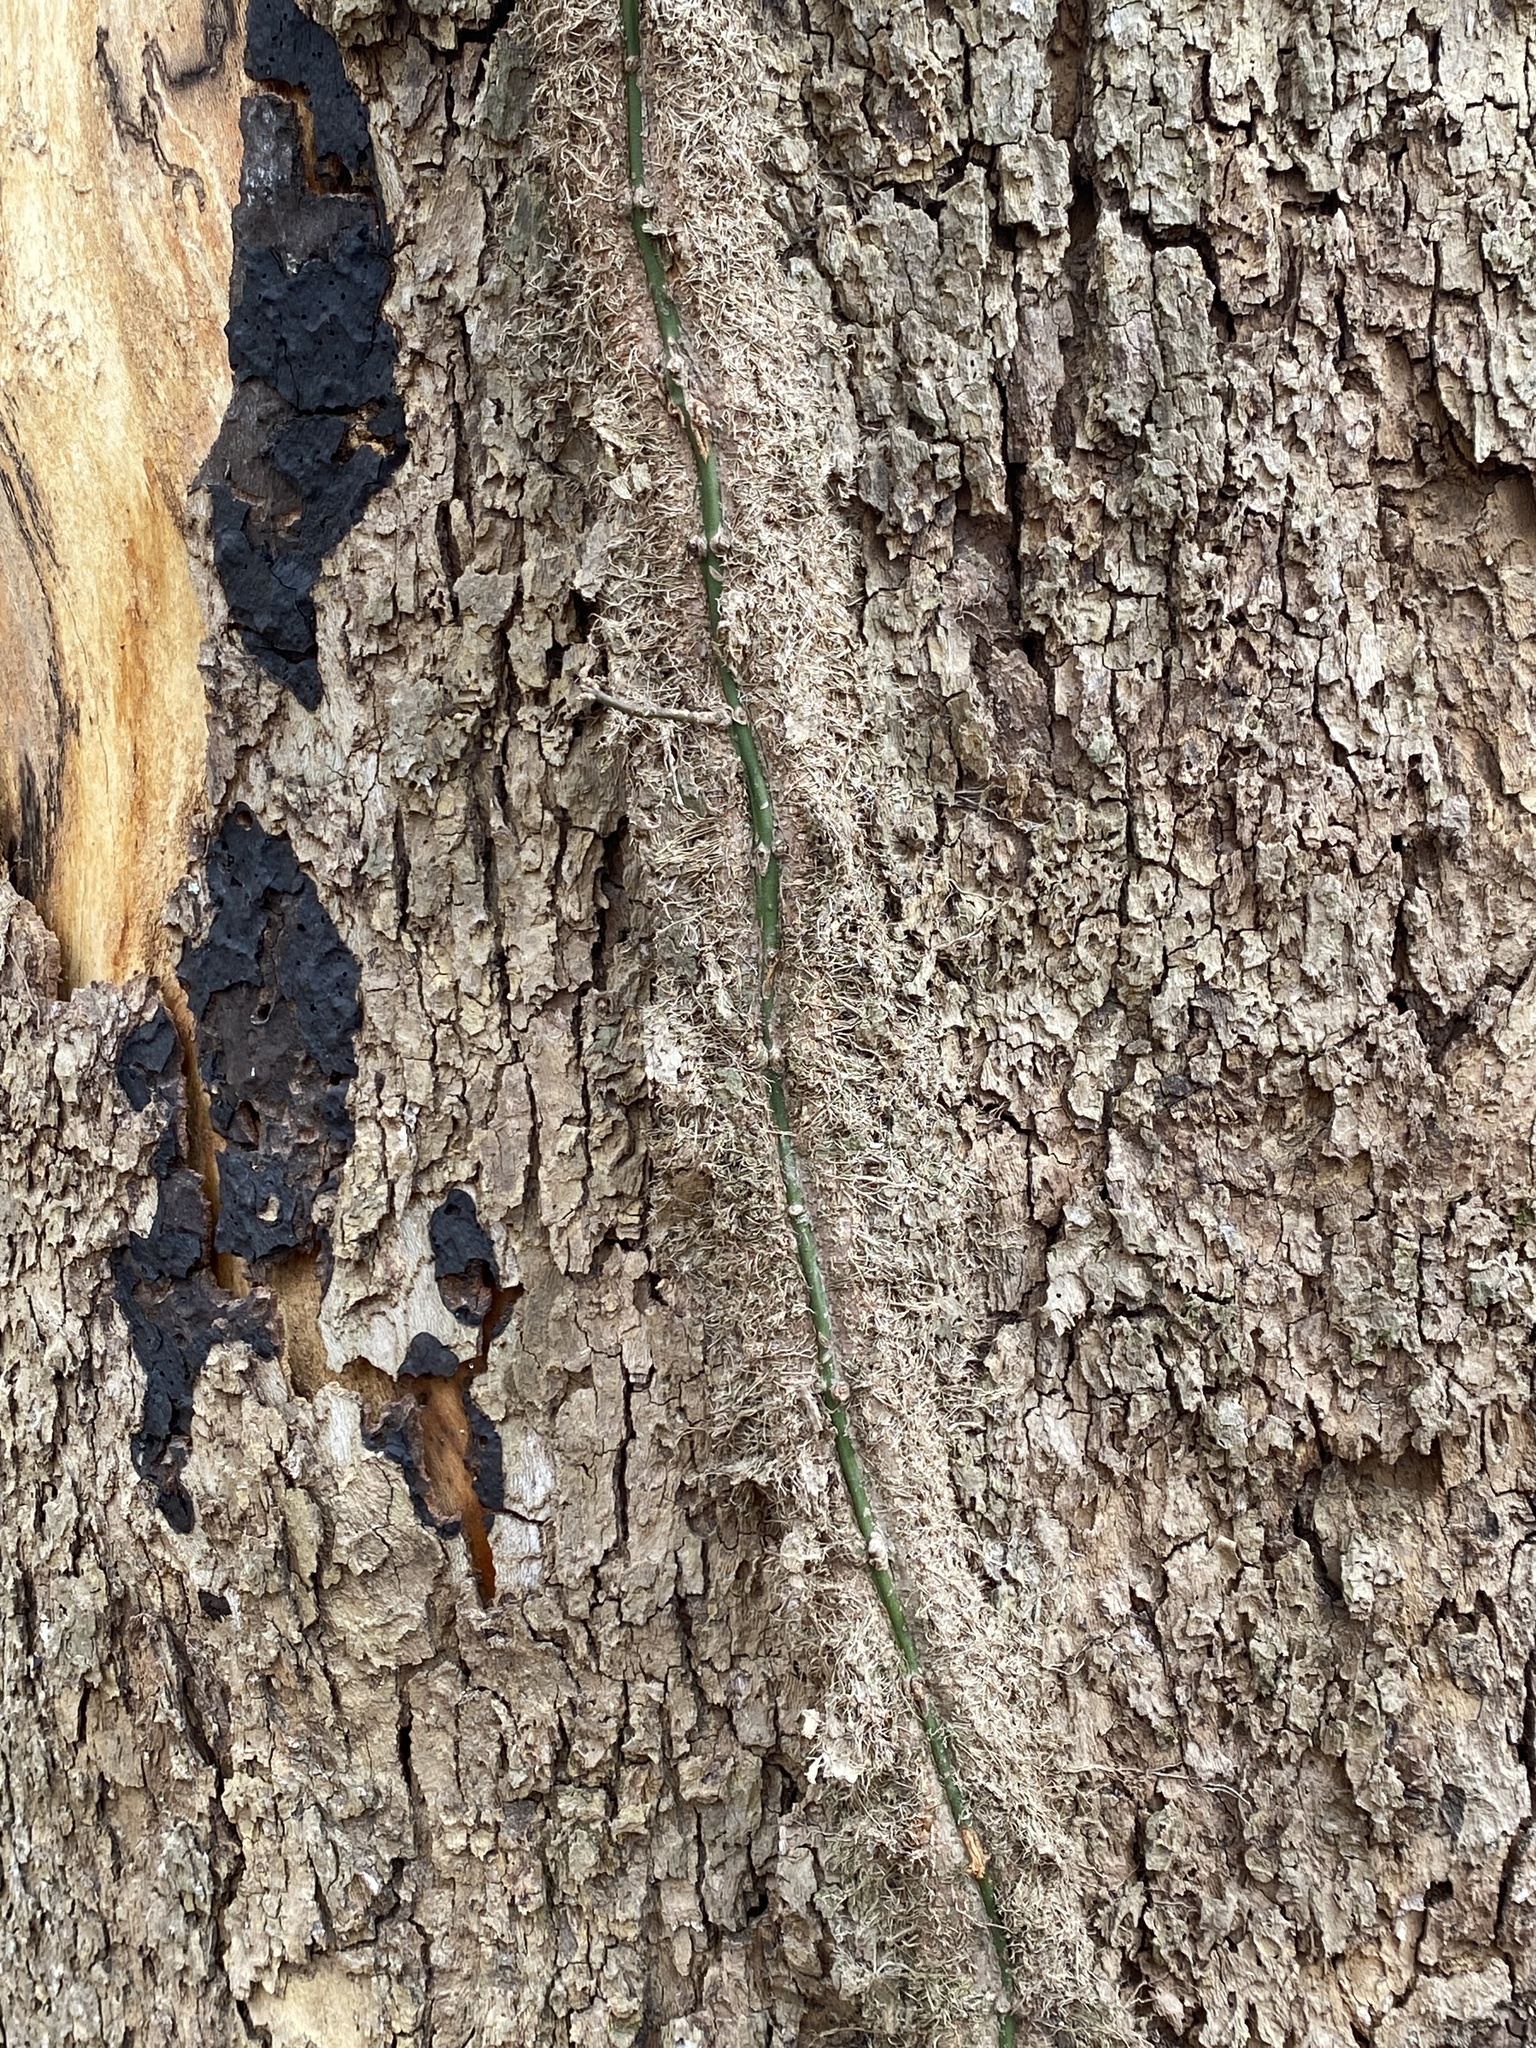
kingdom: Plantae
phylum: Tracheophyta
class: Magnoliopsida
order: Celastrales
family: Celastraceae
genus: Euonymus
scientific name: Euonymus fortunei
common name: Climbing euonymus
